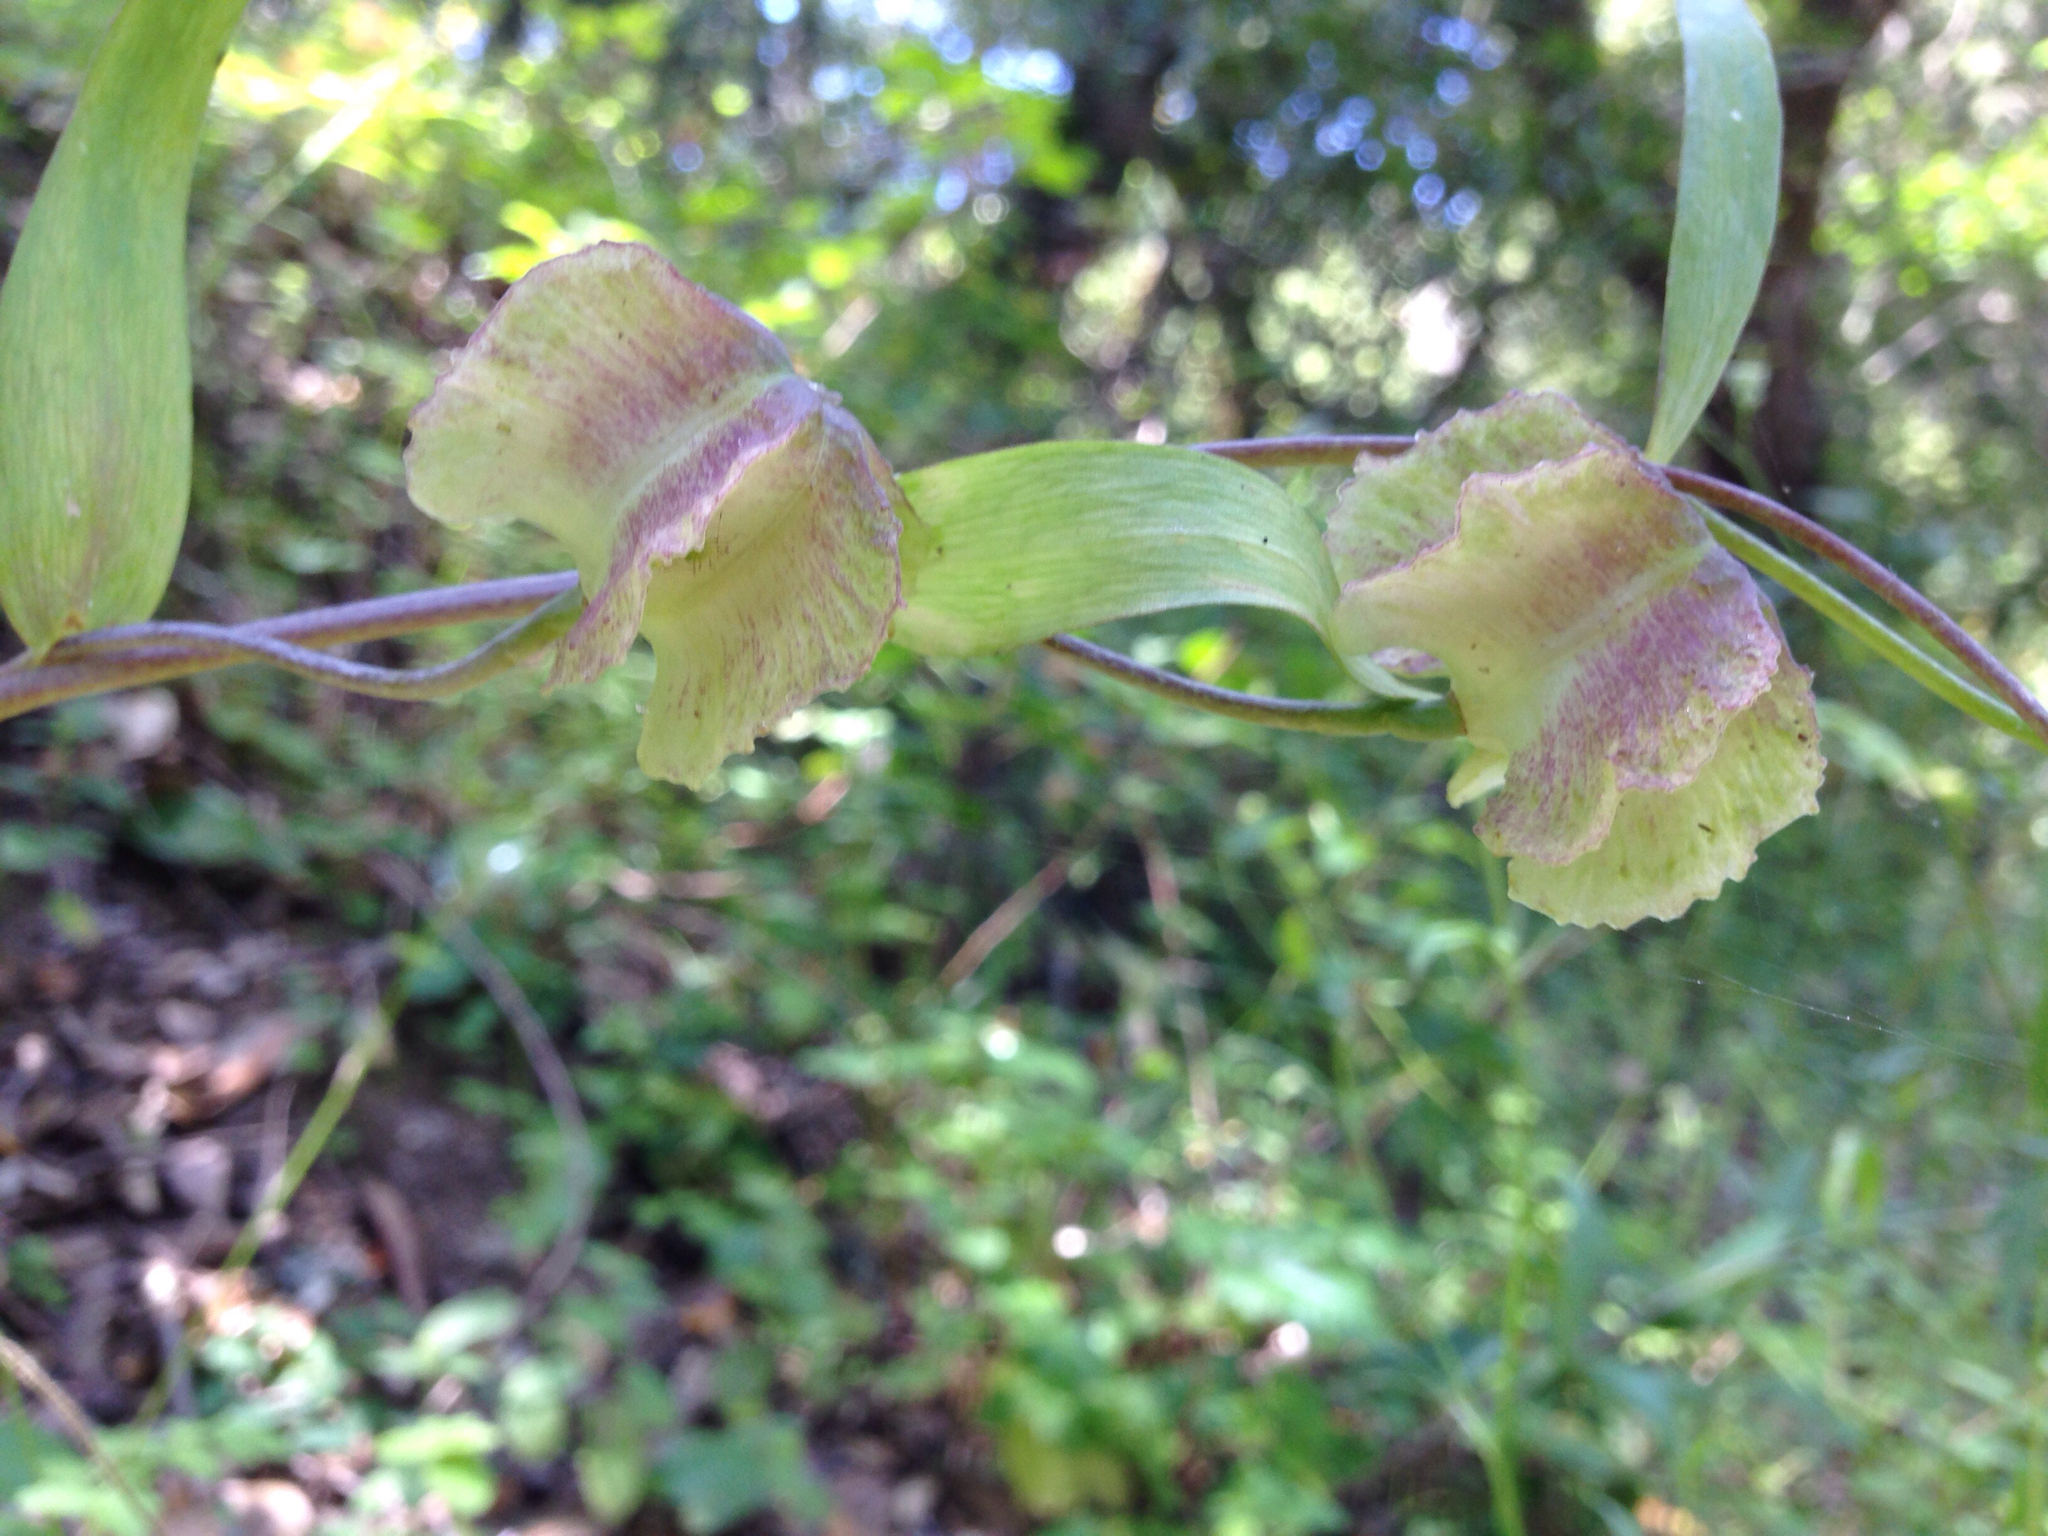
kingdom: Plantae
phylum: Tracheophyta
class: Liliopsida
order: Liliales
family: Liliaceae
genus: Fritillaria
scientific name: Fritillaria affinis
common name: Ojai fritillary
